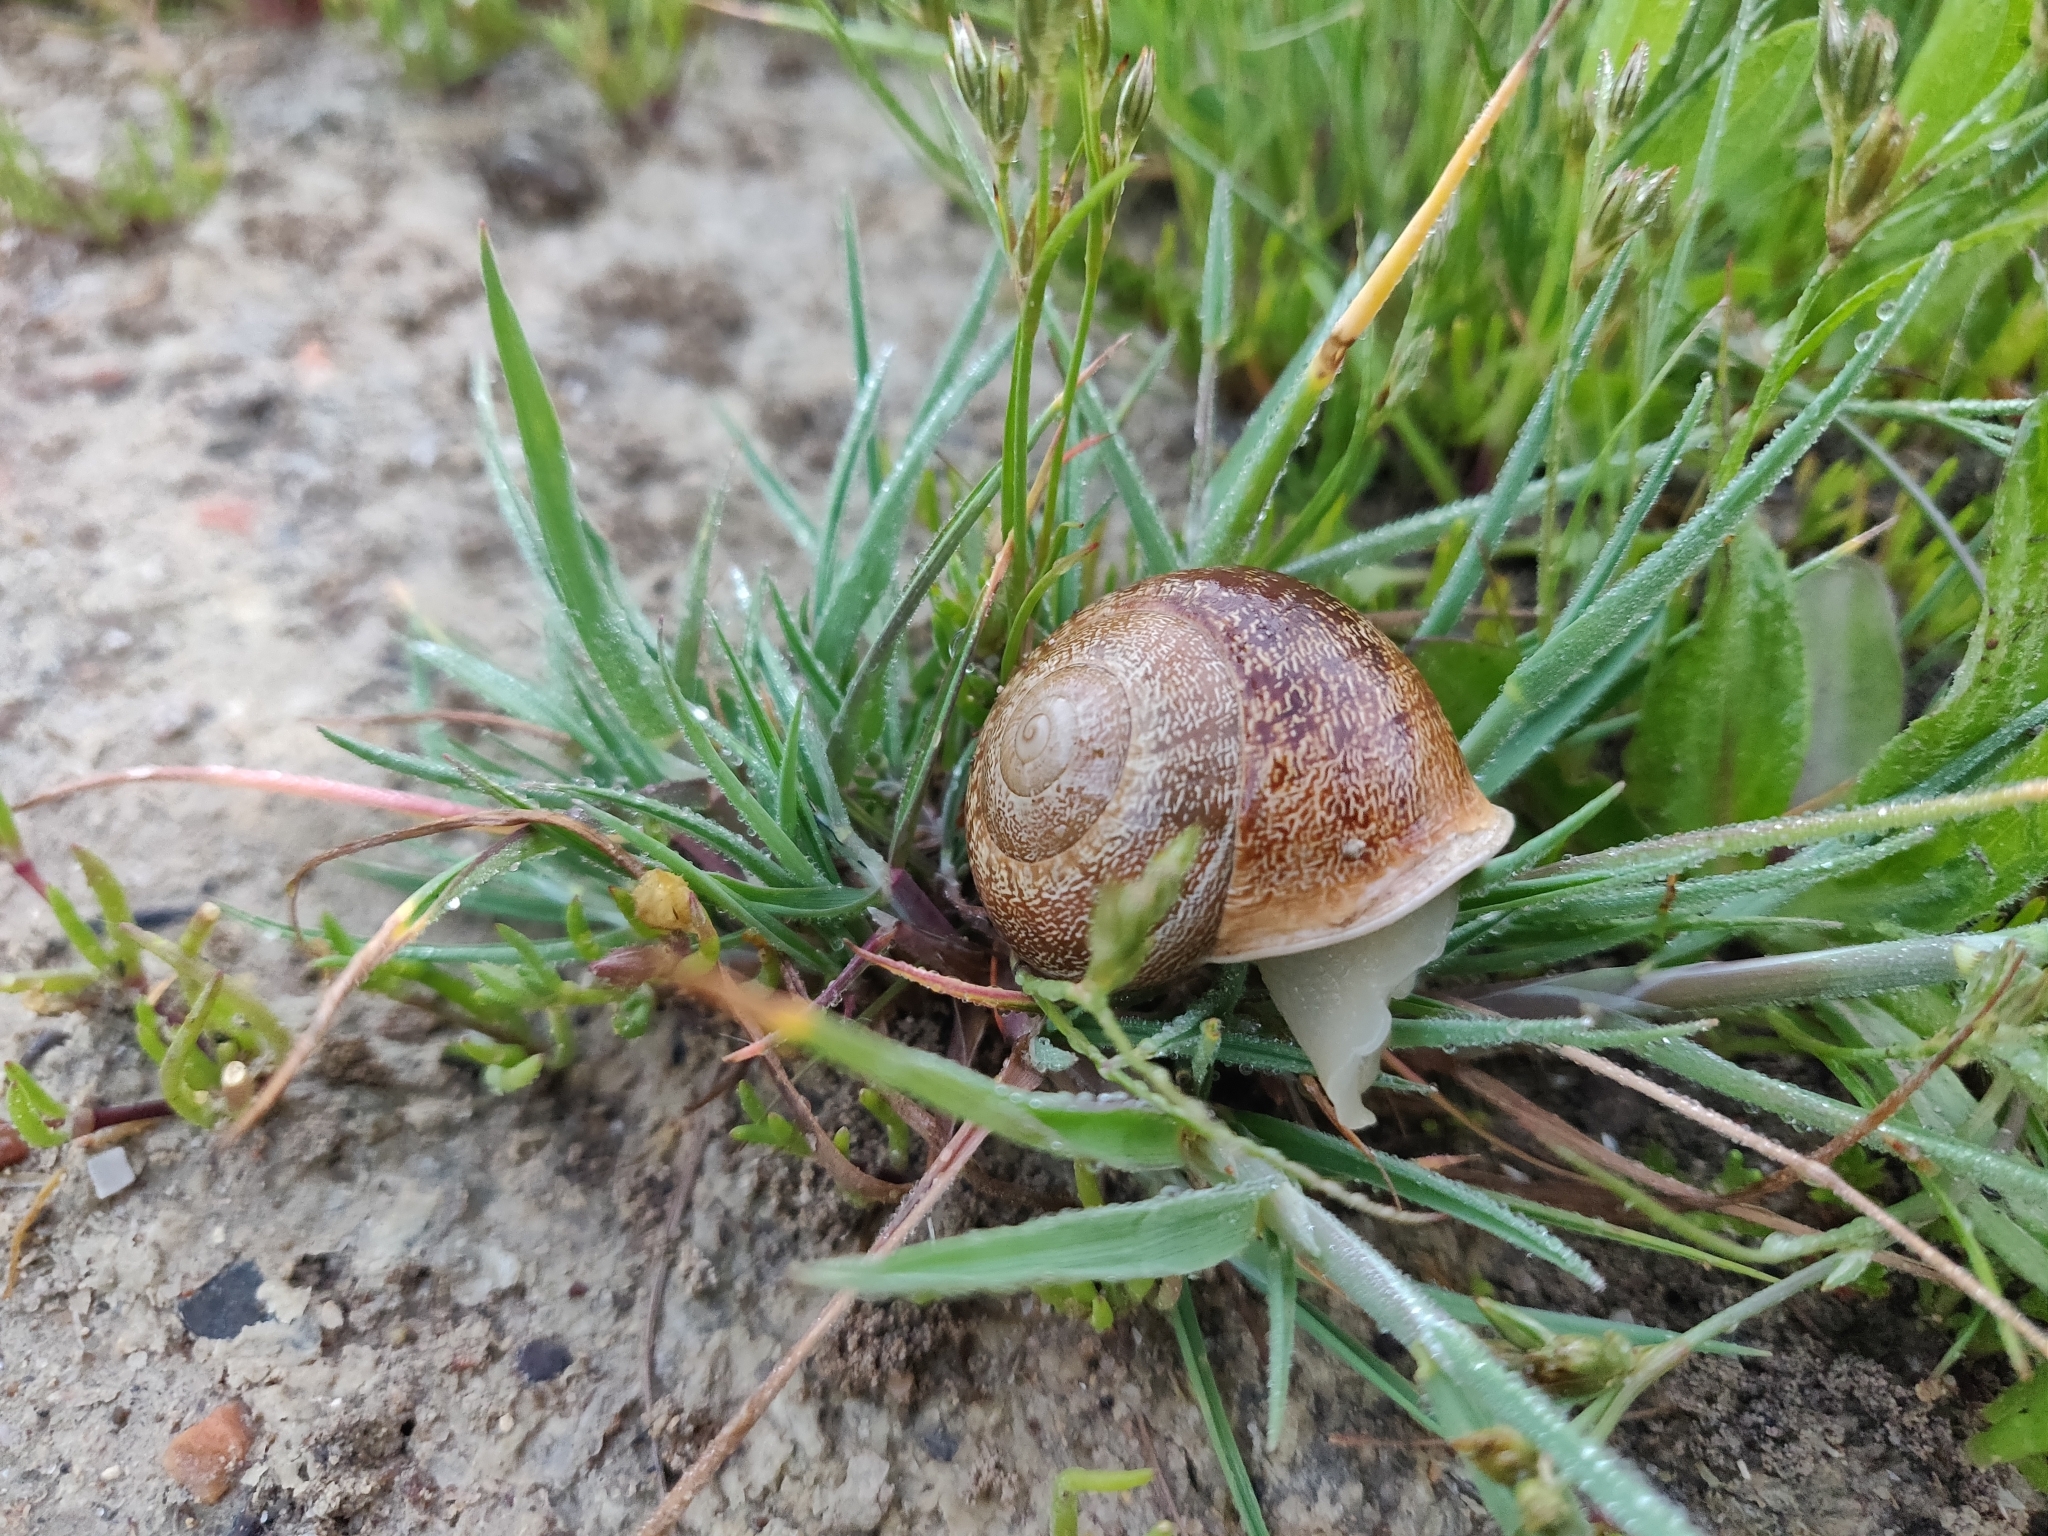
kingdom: Animalia
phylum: Mollusca
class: Gastropoda
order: Stylommatophora
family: Helicidae
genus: Eobania
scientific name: Eobania vermiculata
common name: Chocolateband snail
